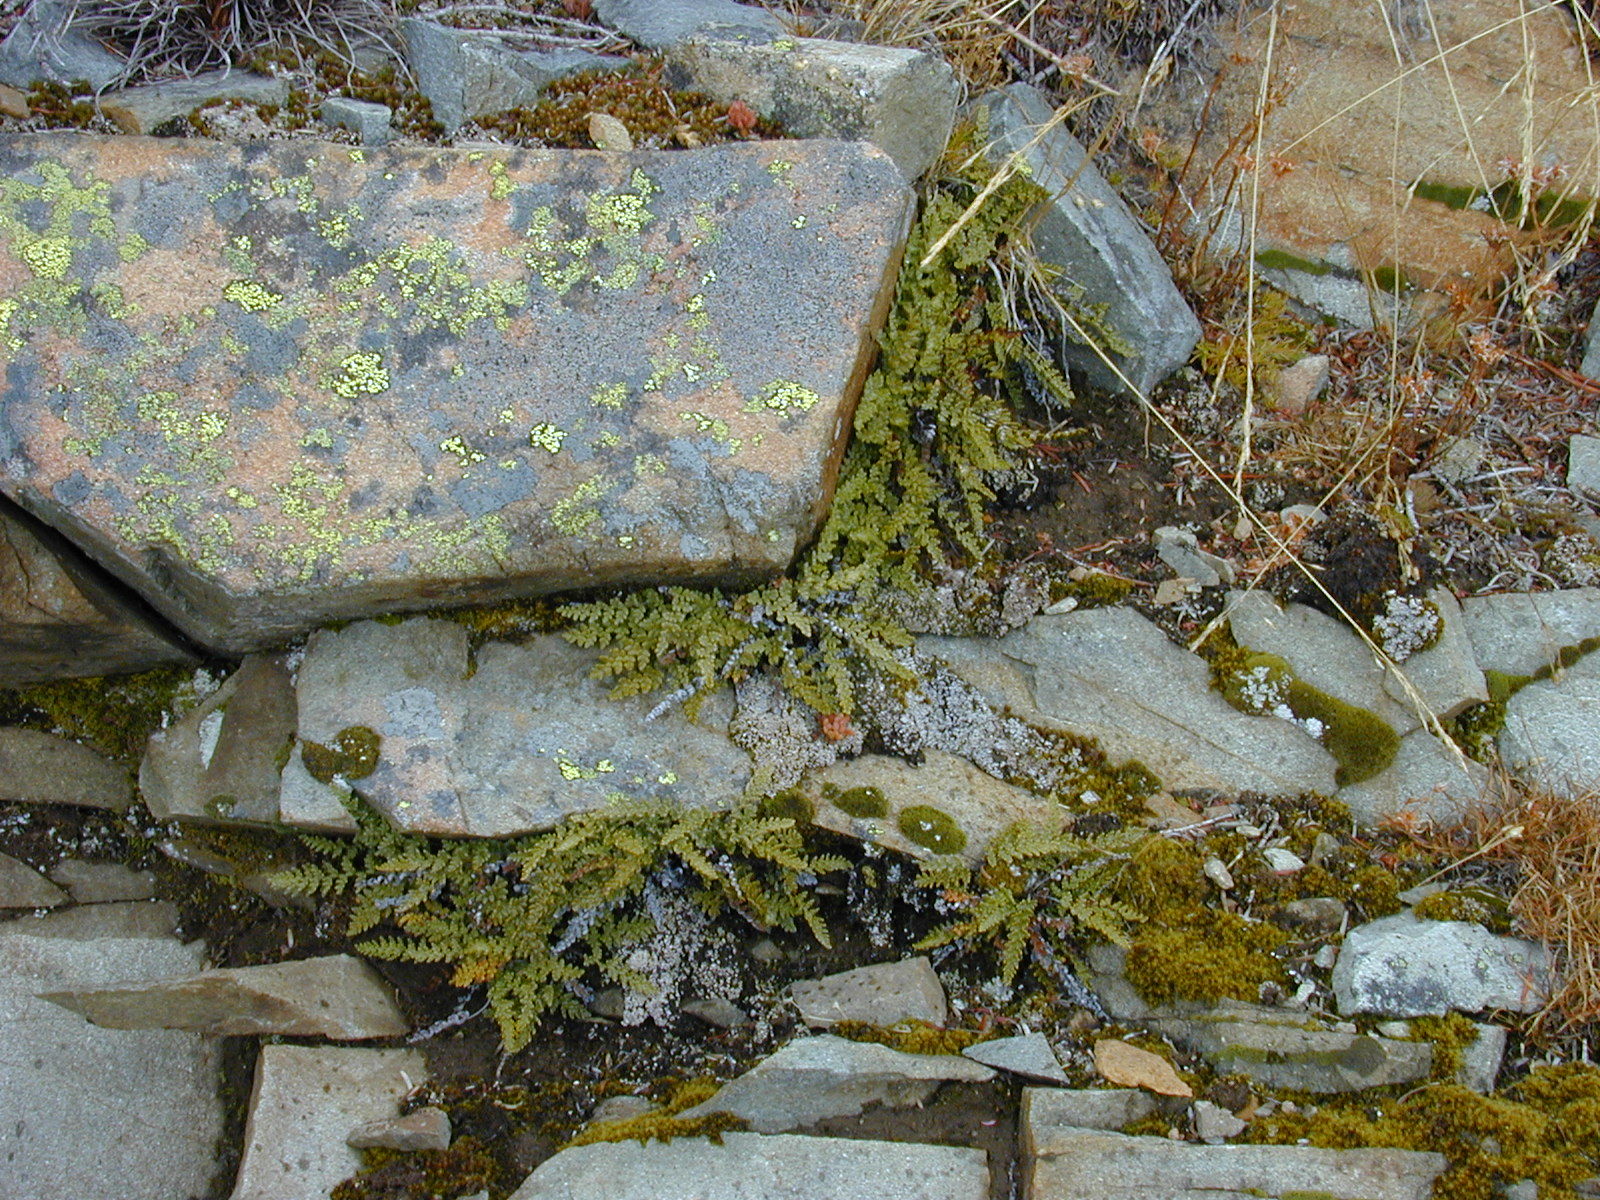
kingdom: Plantae
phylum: Tracheophyta
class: Polypodiopsida
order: Polypodiales
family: Pteridaceae
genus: Myriopteris
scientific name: Myriopteris gracillima
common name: Lace fern
